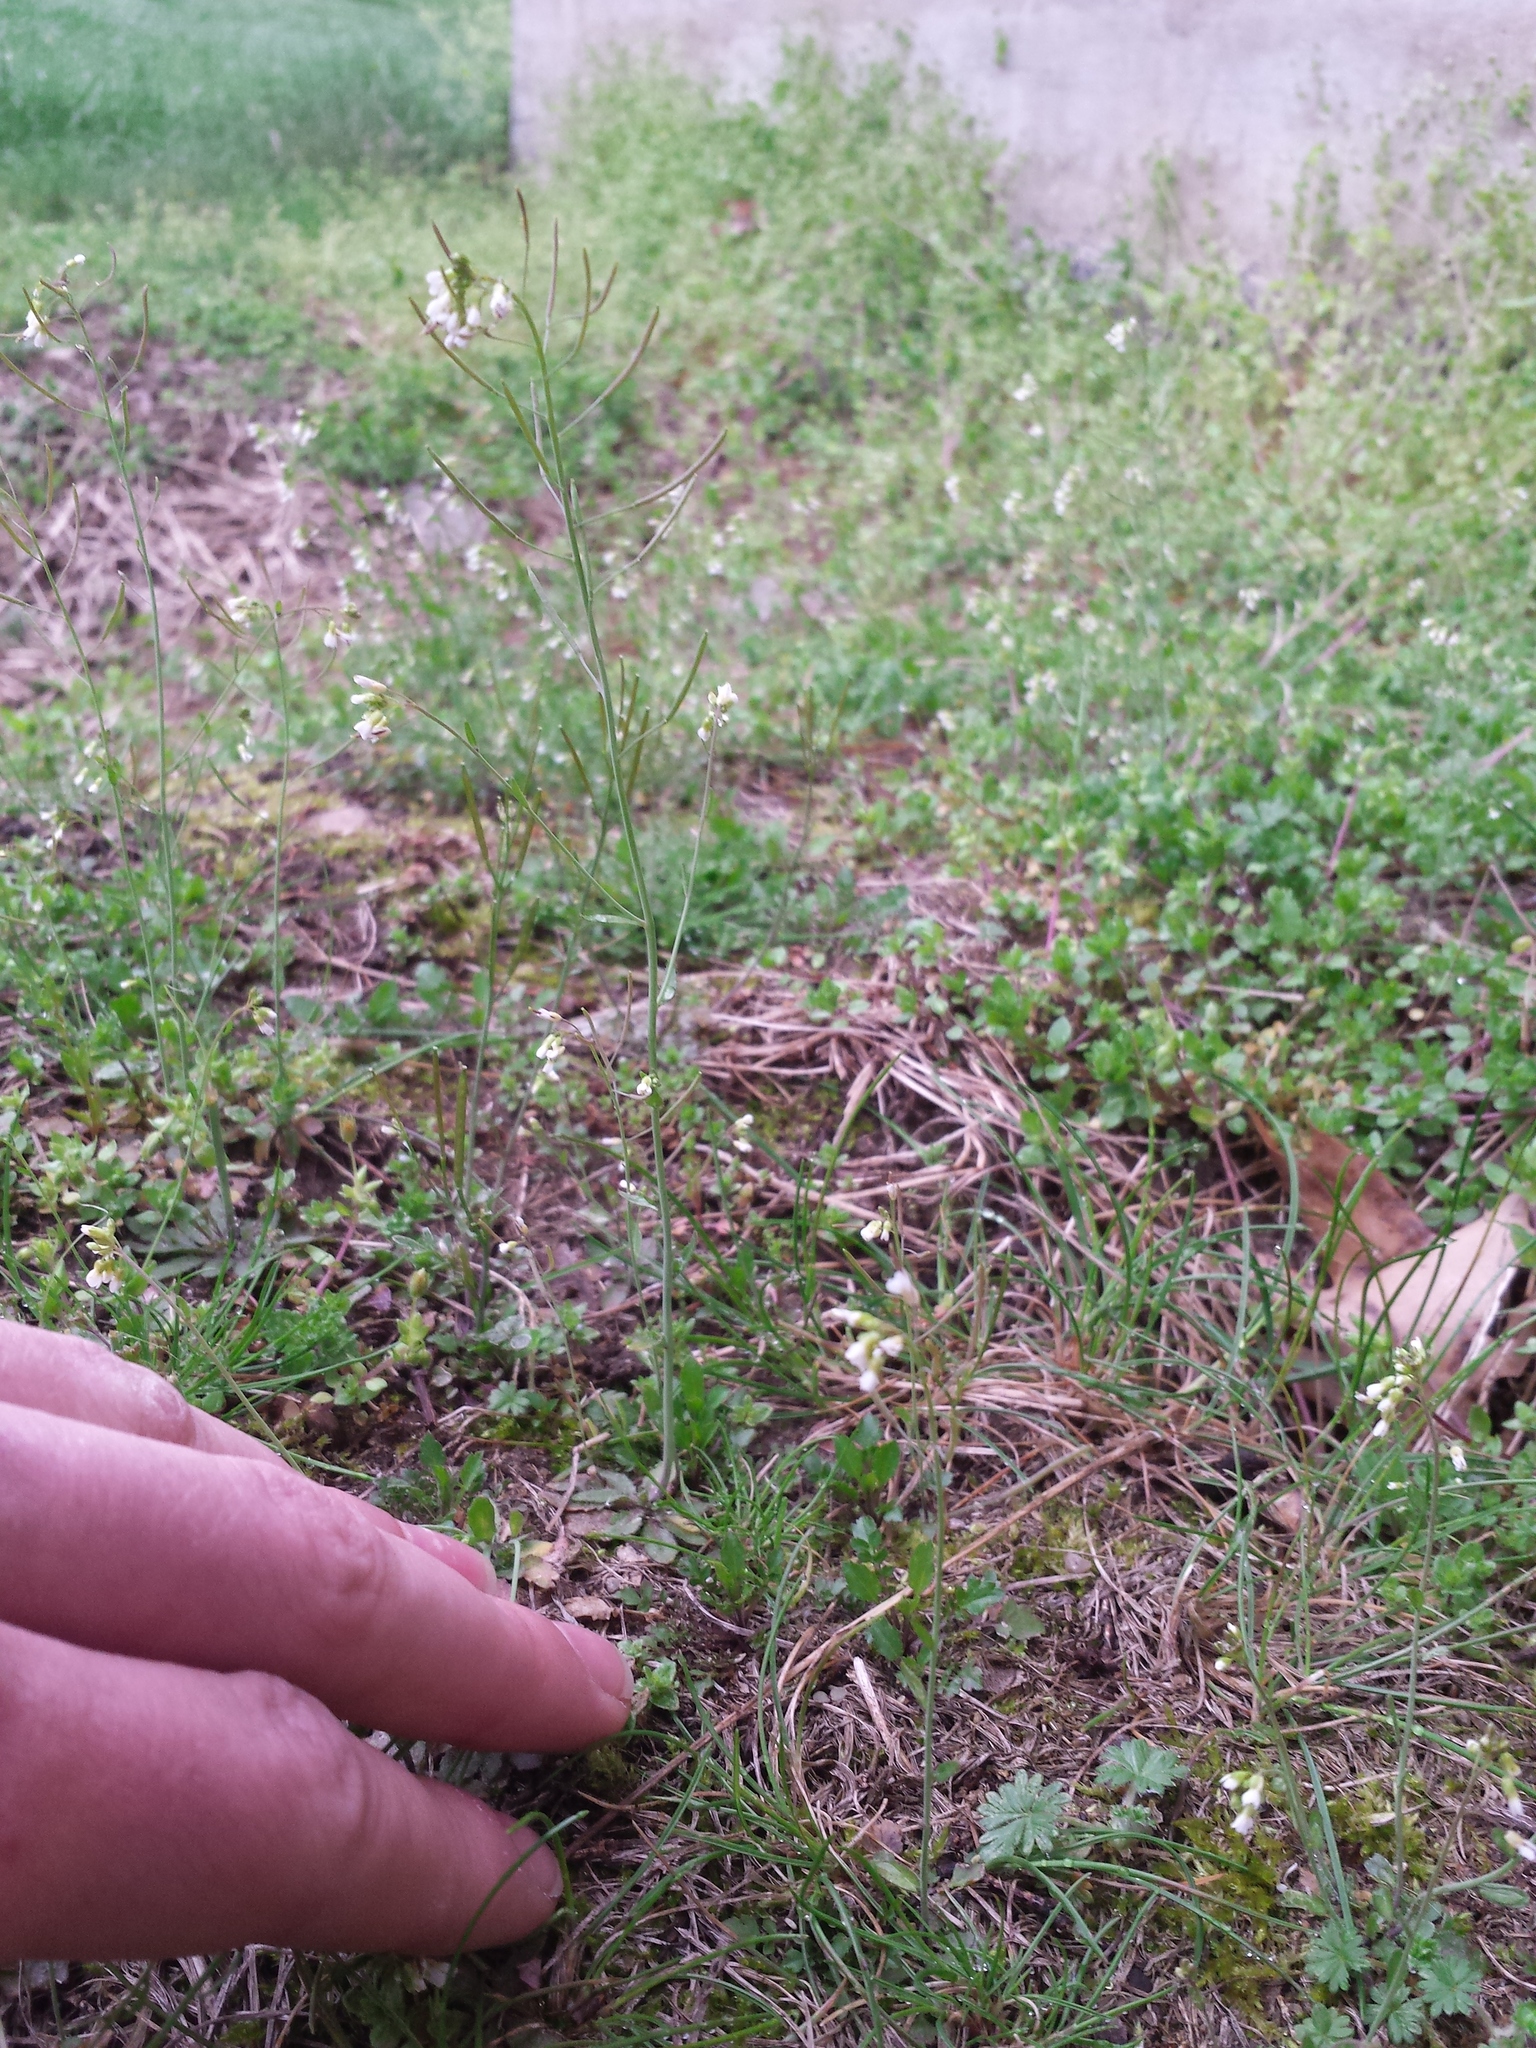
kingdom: Plantae
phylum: Tracheophyta
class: Magnoliopsida
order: Brassicales
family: Brassicaceae
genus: Arabidopsis
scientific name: Arabidopsis thaliana
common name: Thale cress
